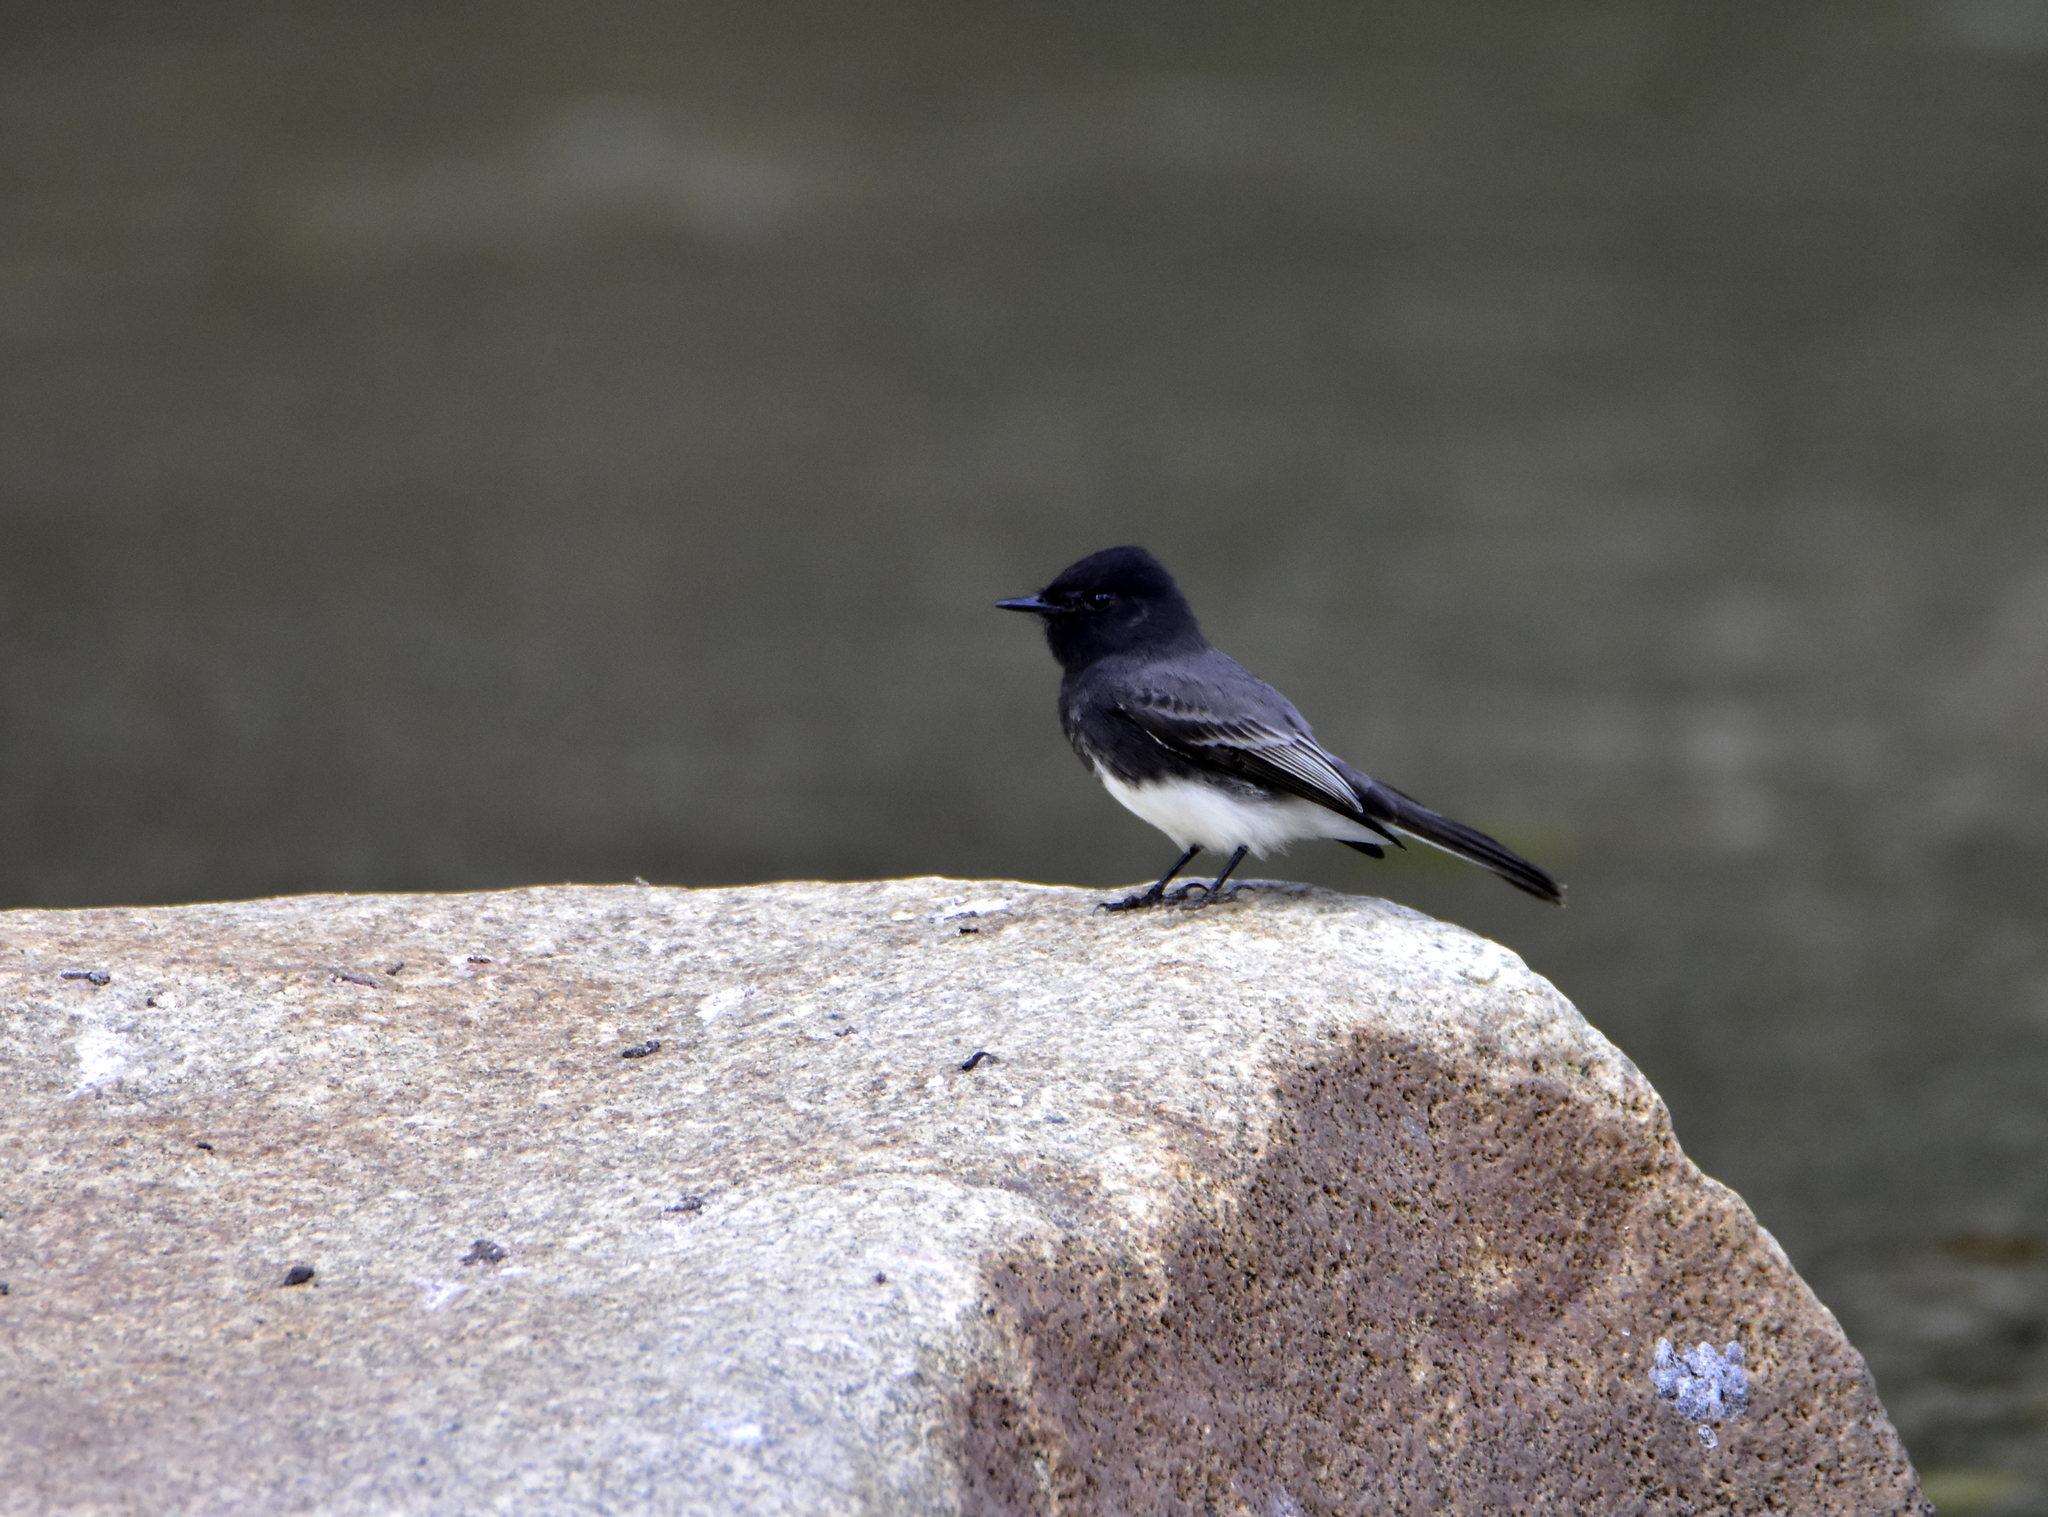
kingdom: Animalia
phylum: Chordata
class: Aves
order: Passeriformes
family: Tyrannidae
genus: Sayornis
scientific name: Sayornis nigricans
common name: Black phoebe
